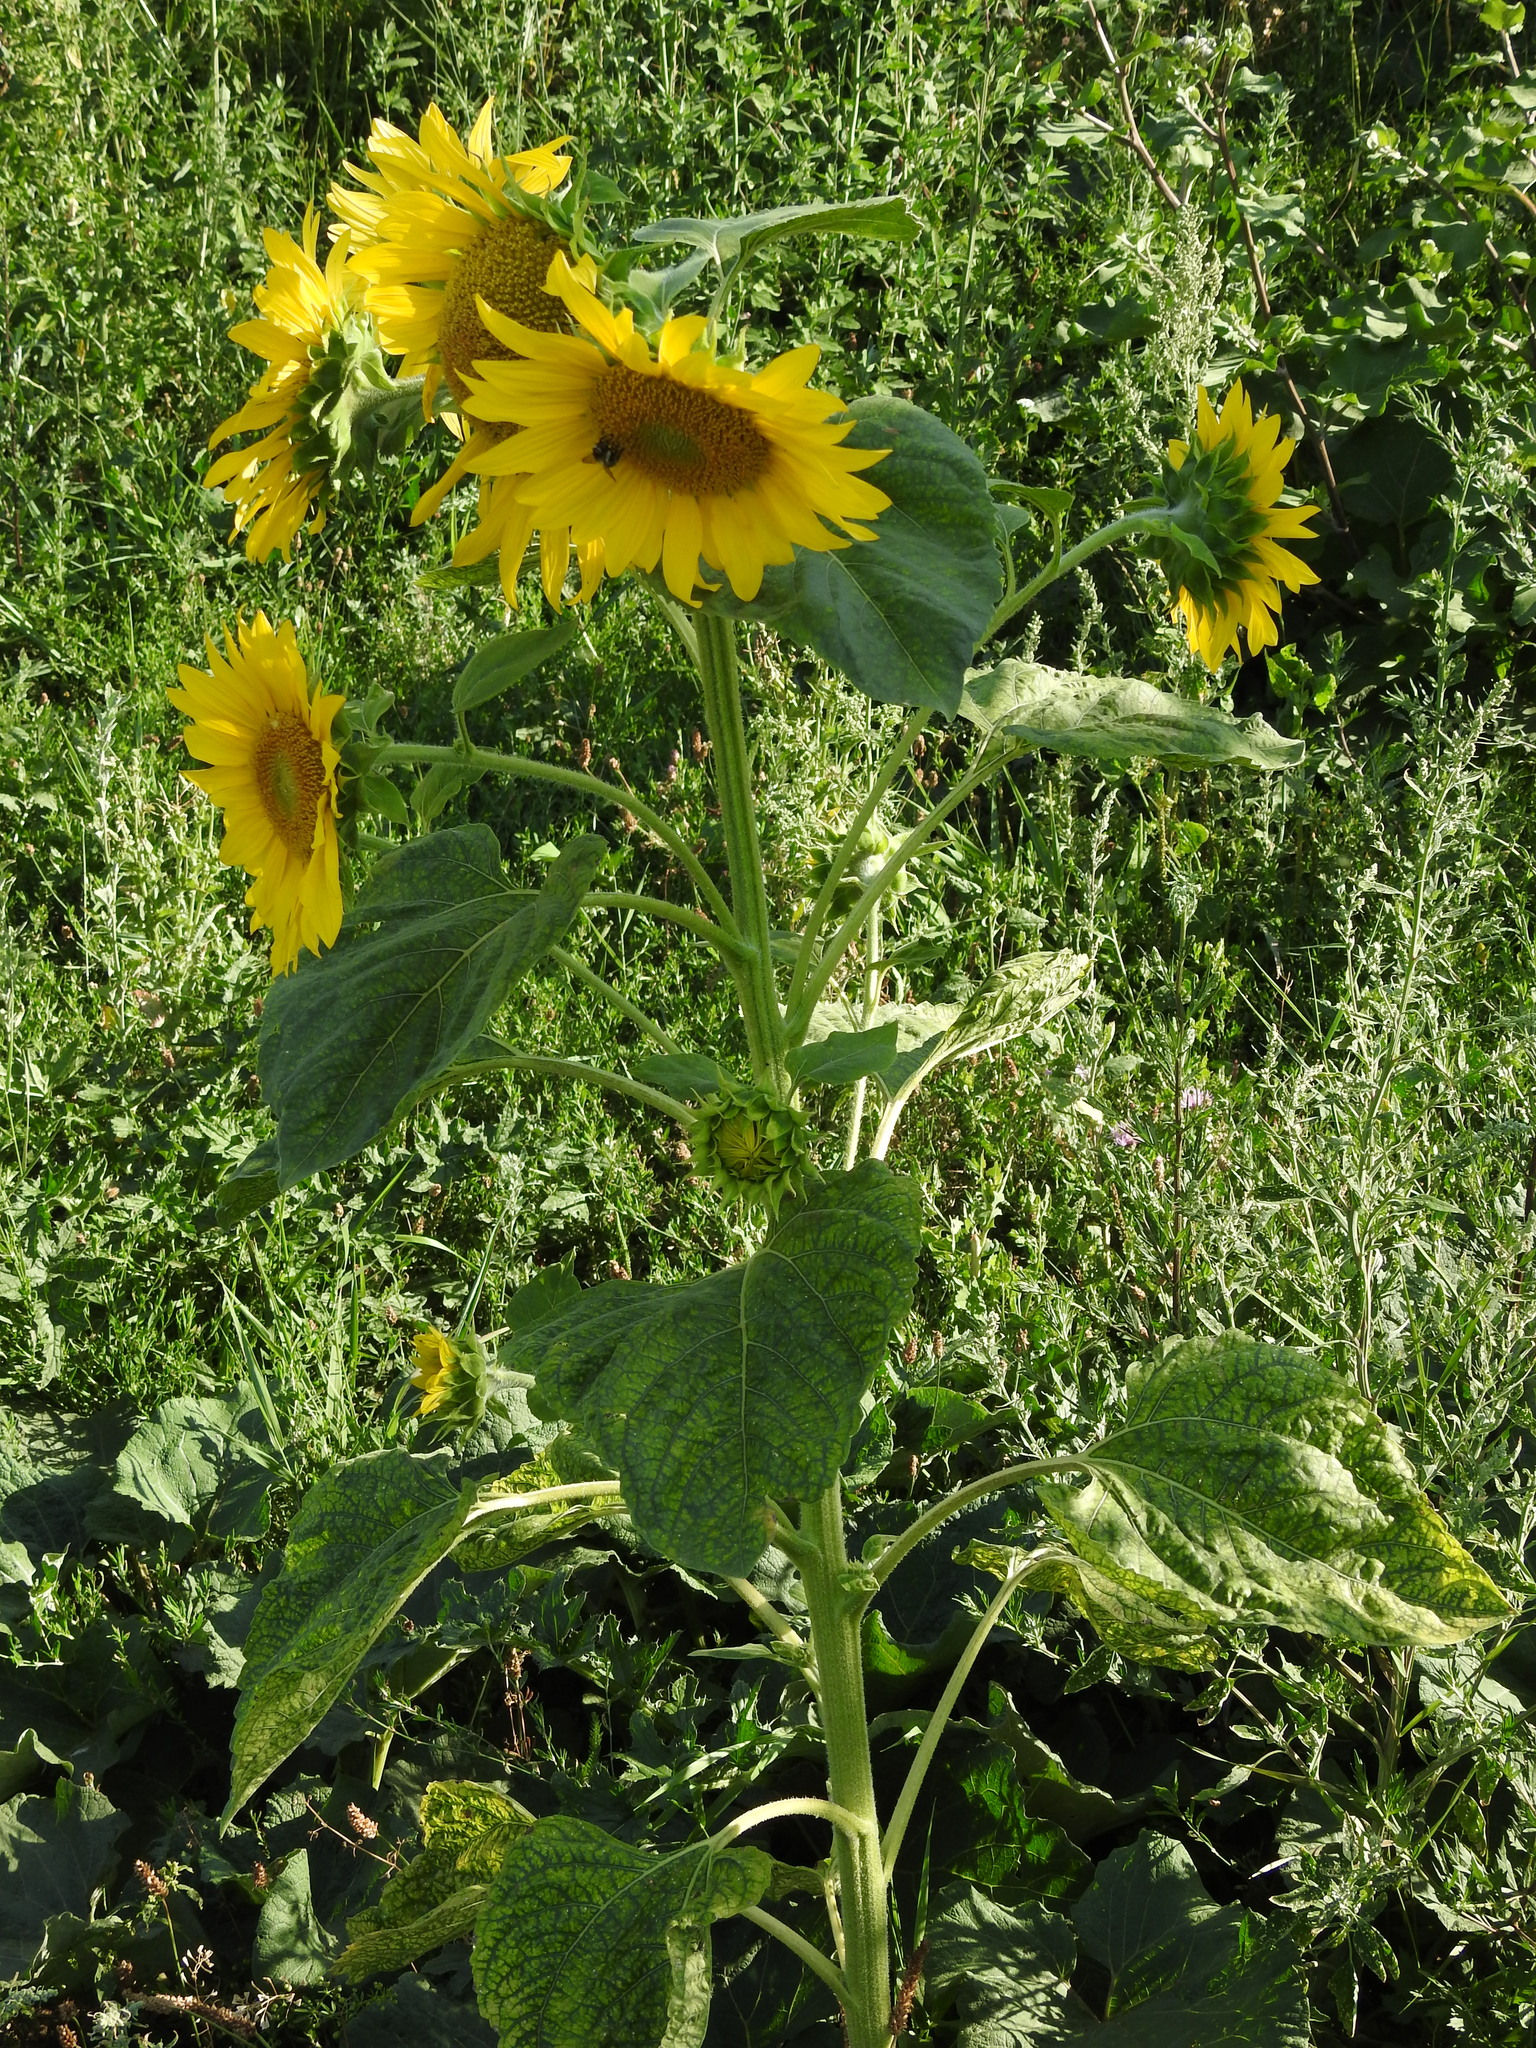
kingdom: Plantae
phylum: Tracheophyta
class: Magnoliopsida
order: Asterales
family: Asteraceae
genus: Helianthus
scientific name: Helianthus annuus
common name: Sunflower
